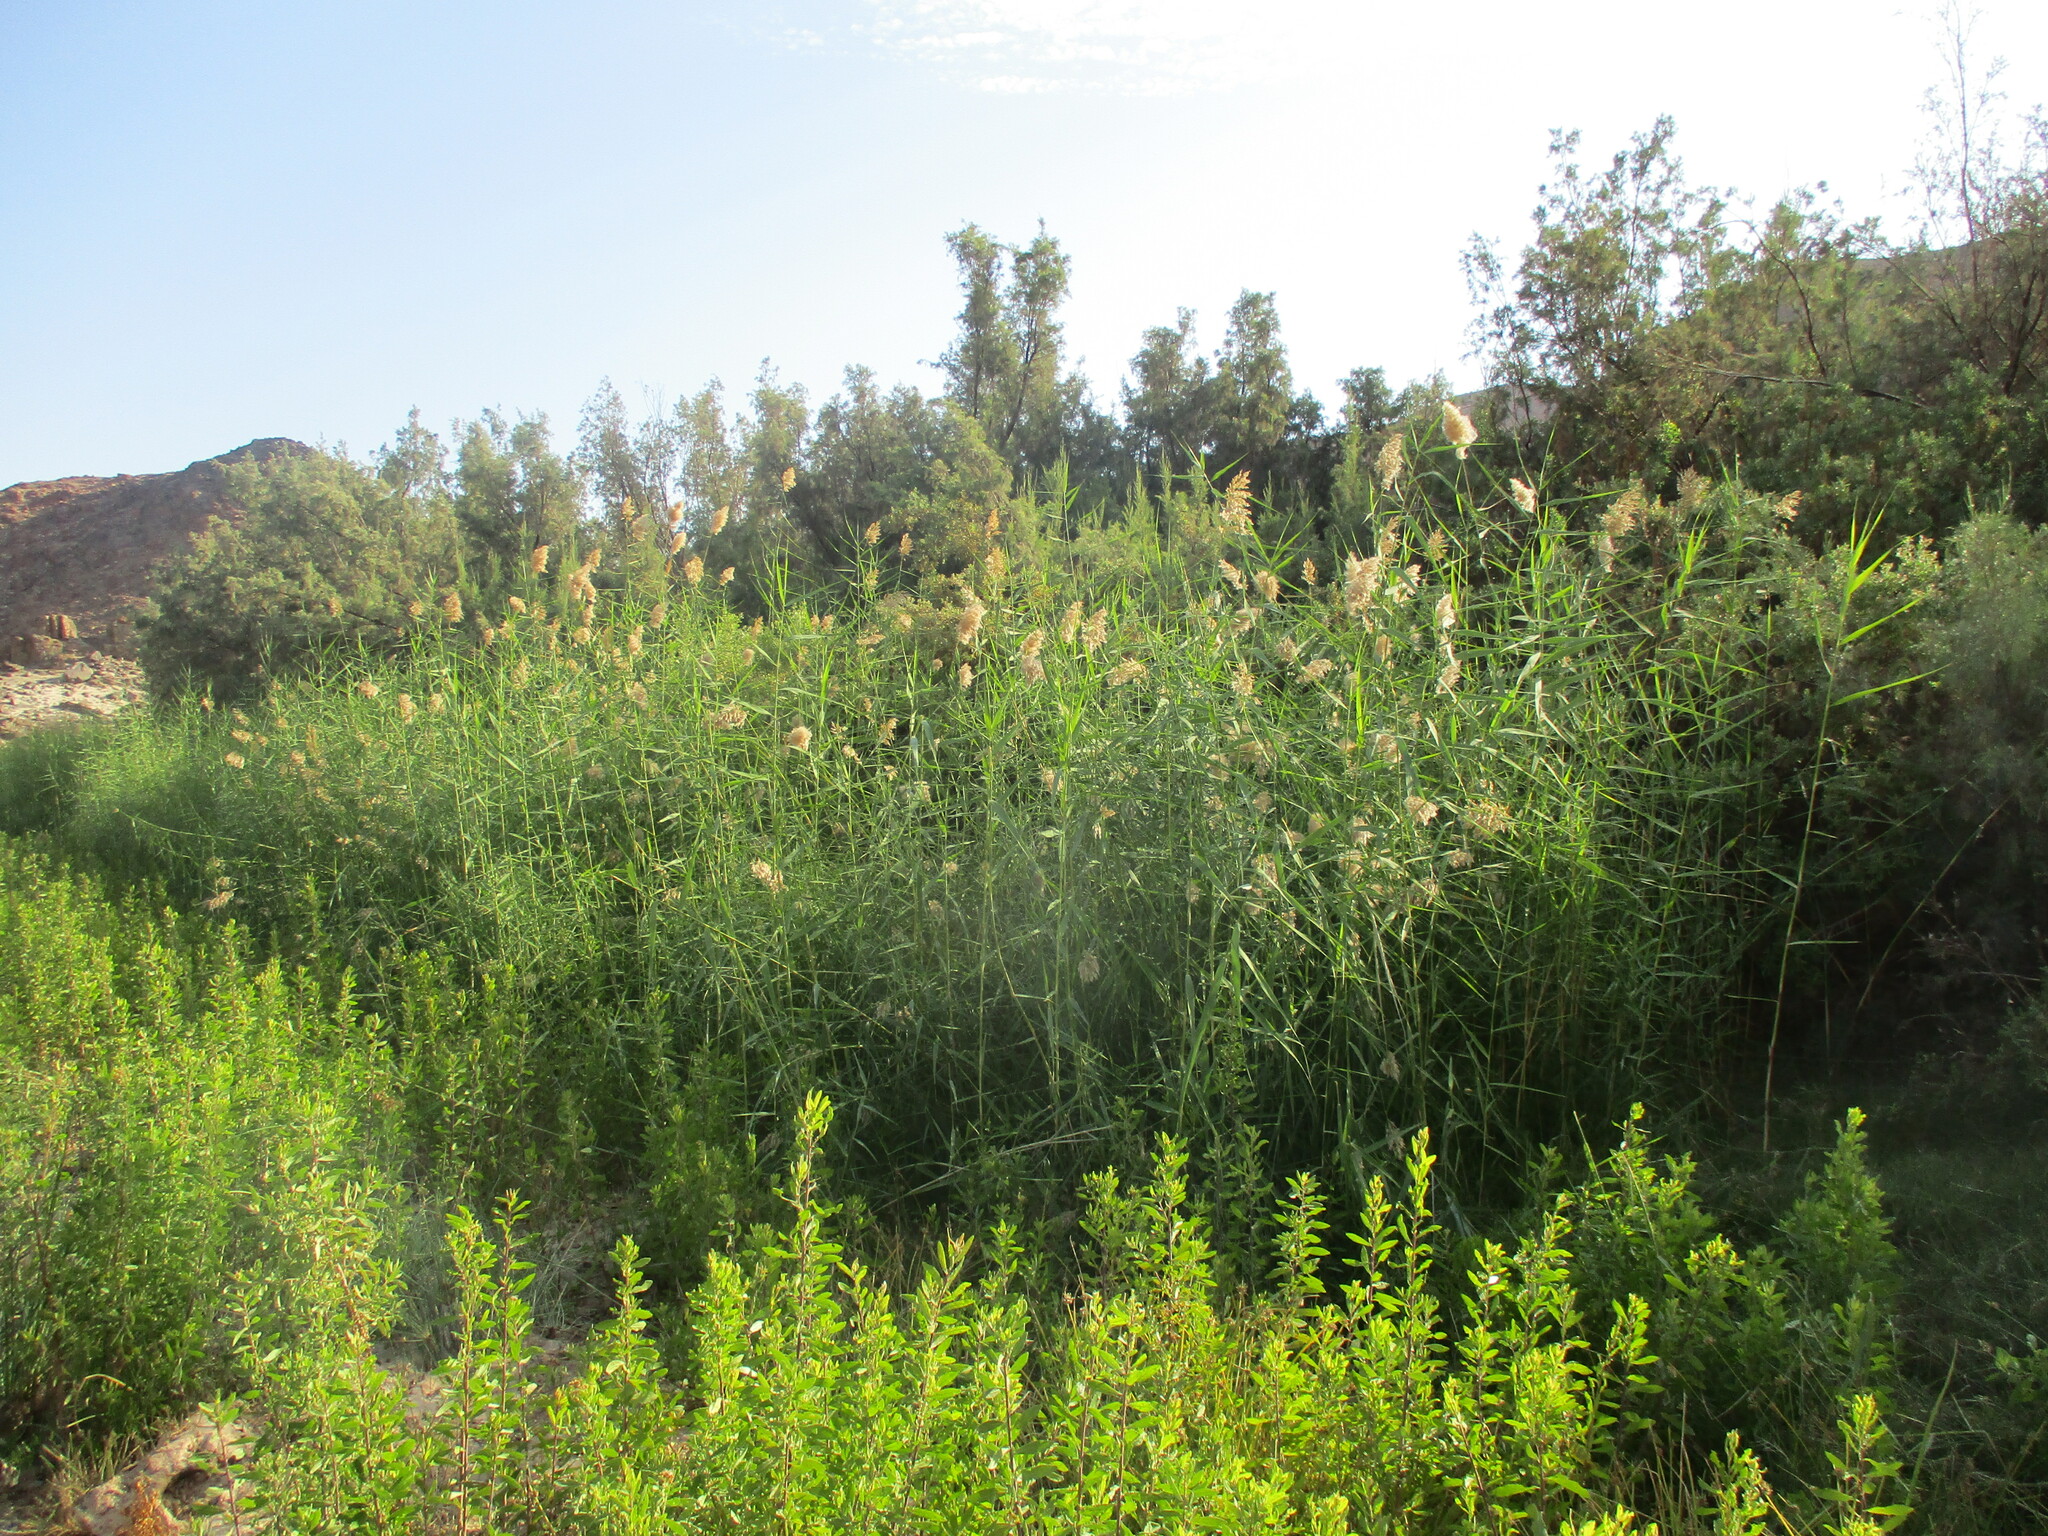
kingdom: Plantae
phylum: Tracheophyta
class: Liliopsida
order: Poales
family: Poaceae
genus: Phragmites
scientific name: Phragmites australis
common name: Common reed
